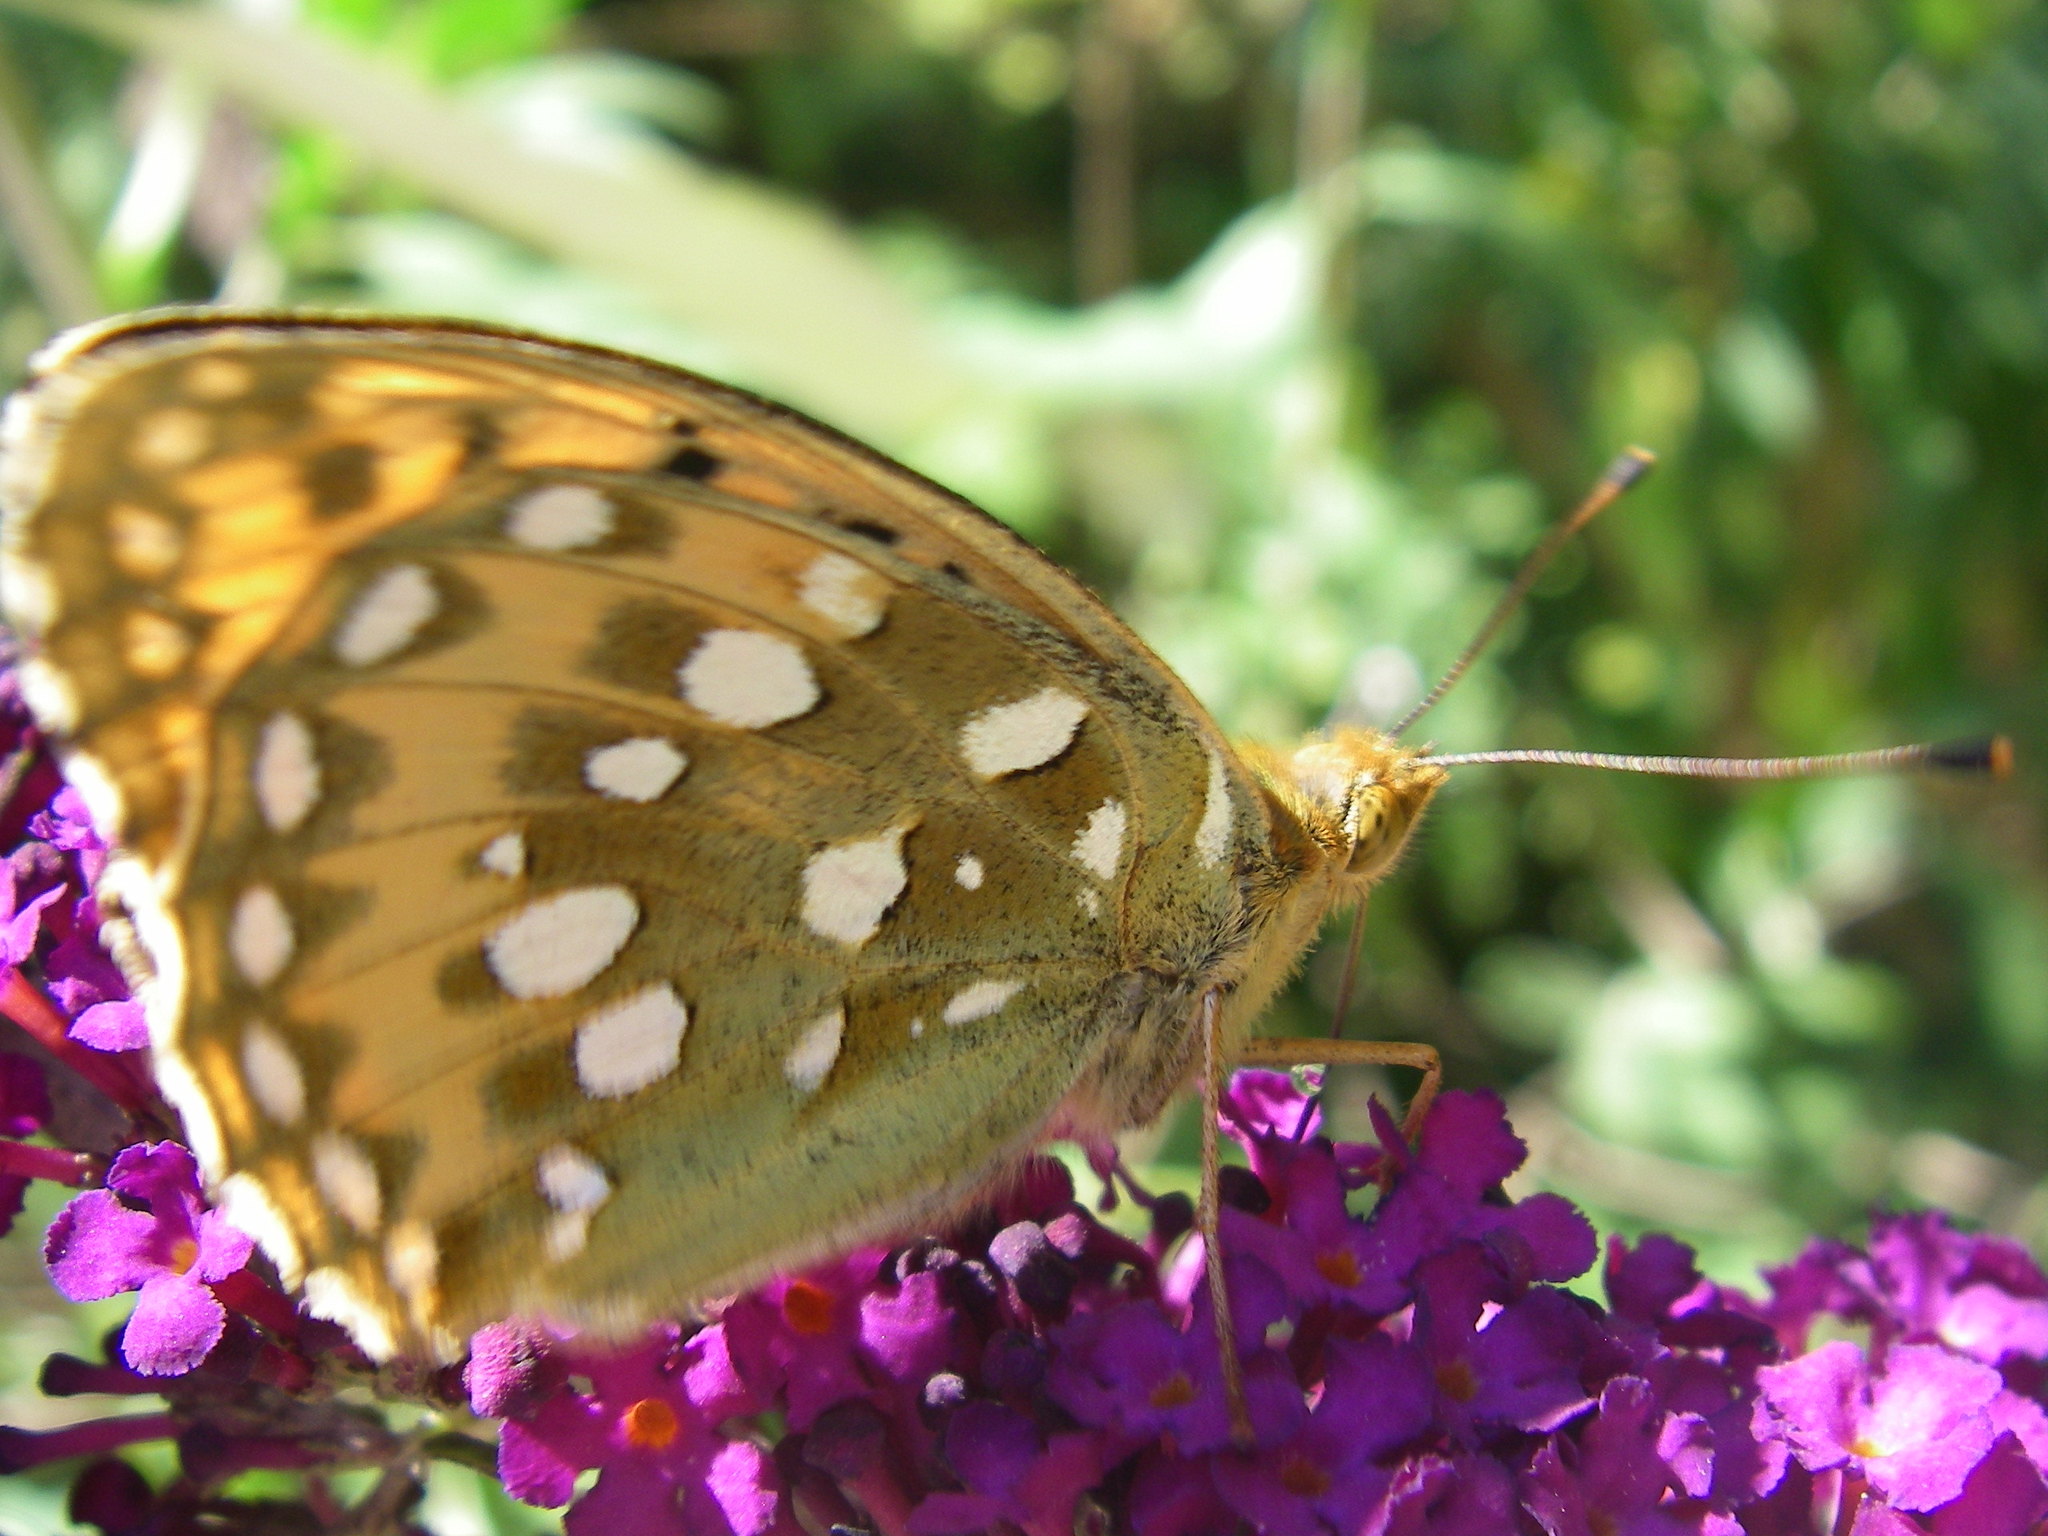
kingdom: Animalia
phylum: Arthropoda
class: Insecta
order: Lepidoptera
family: Nymphalidae
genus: Speyeria
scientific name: Speyeria aglaja
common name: Dark green fritillary
